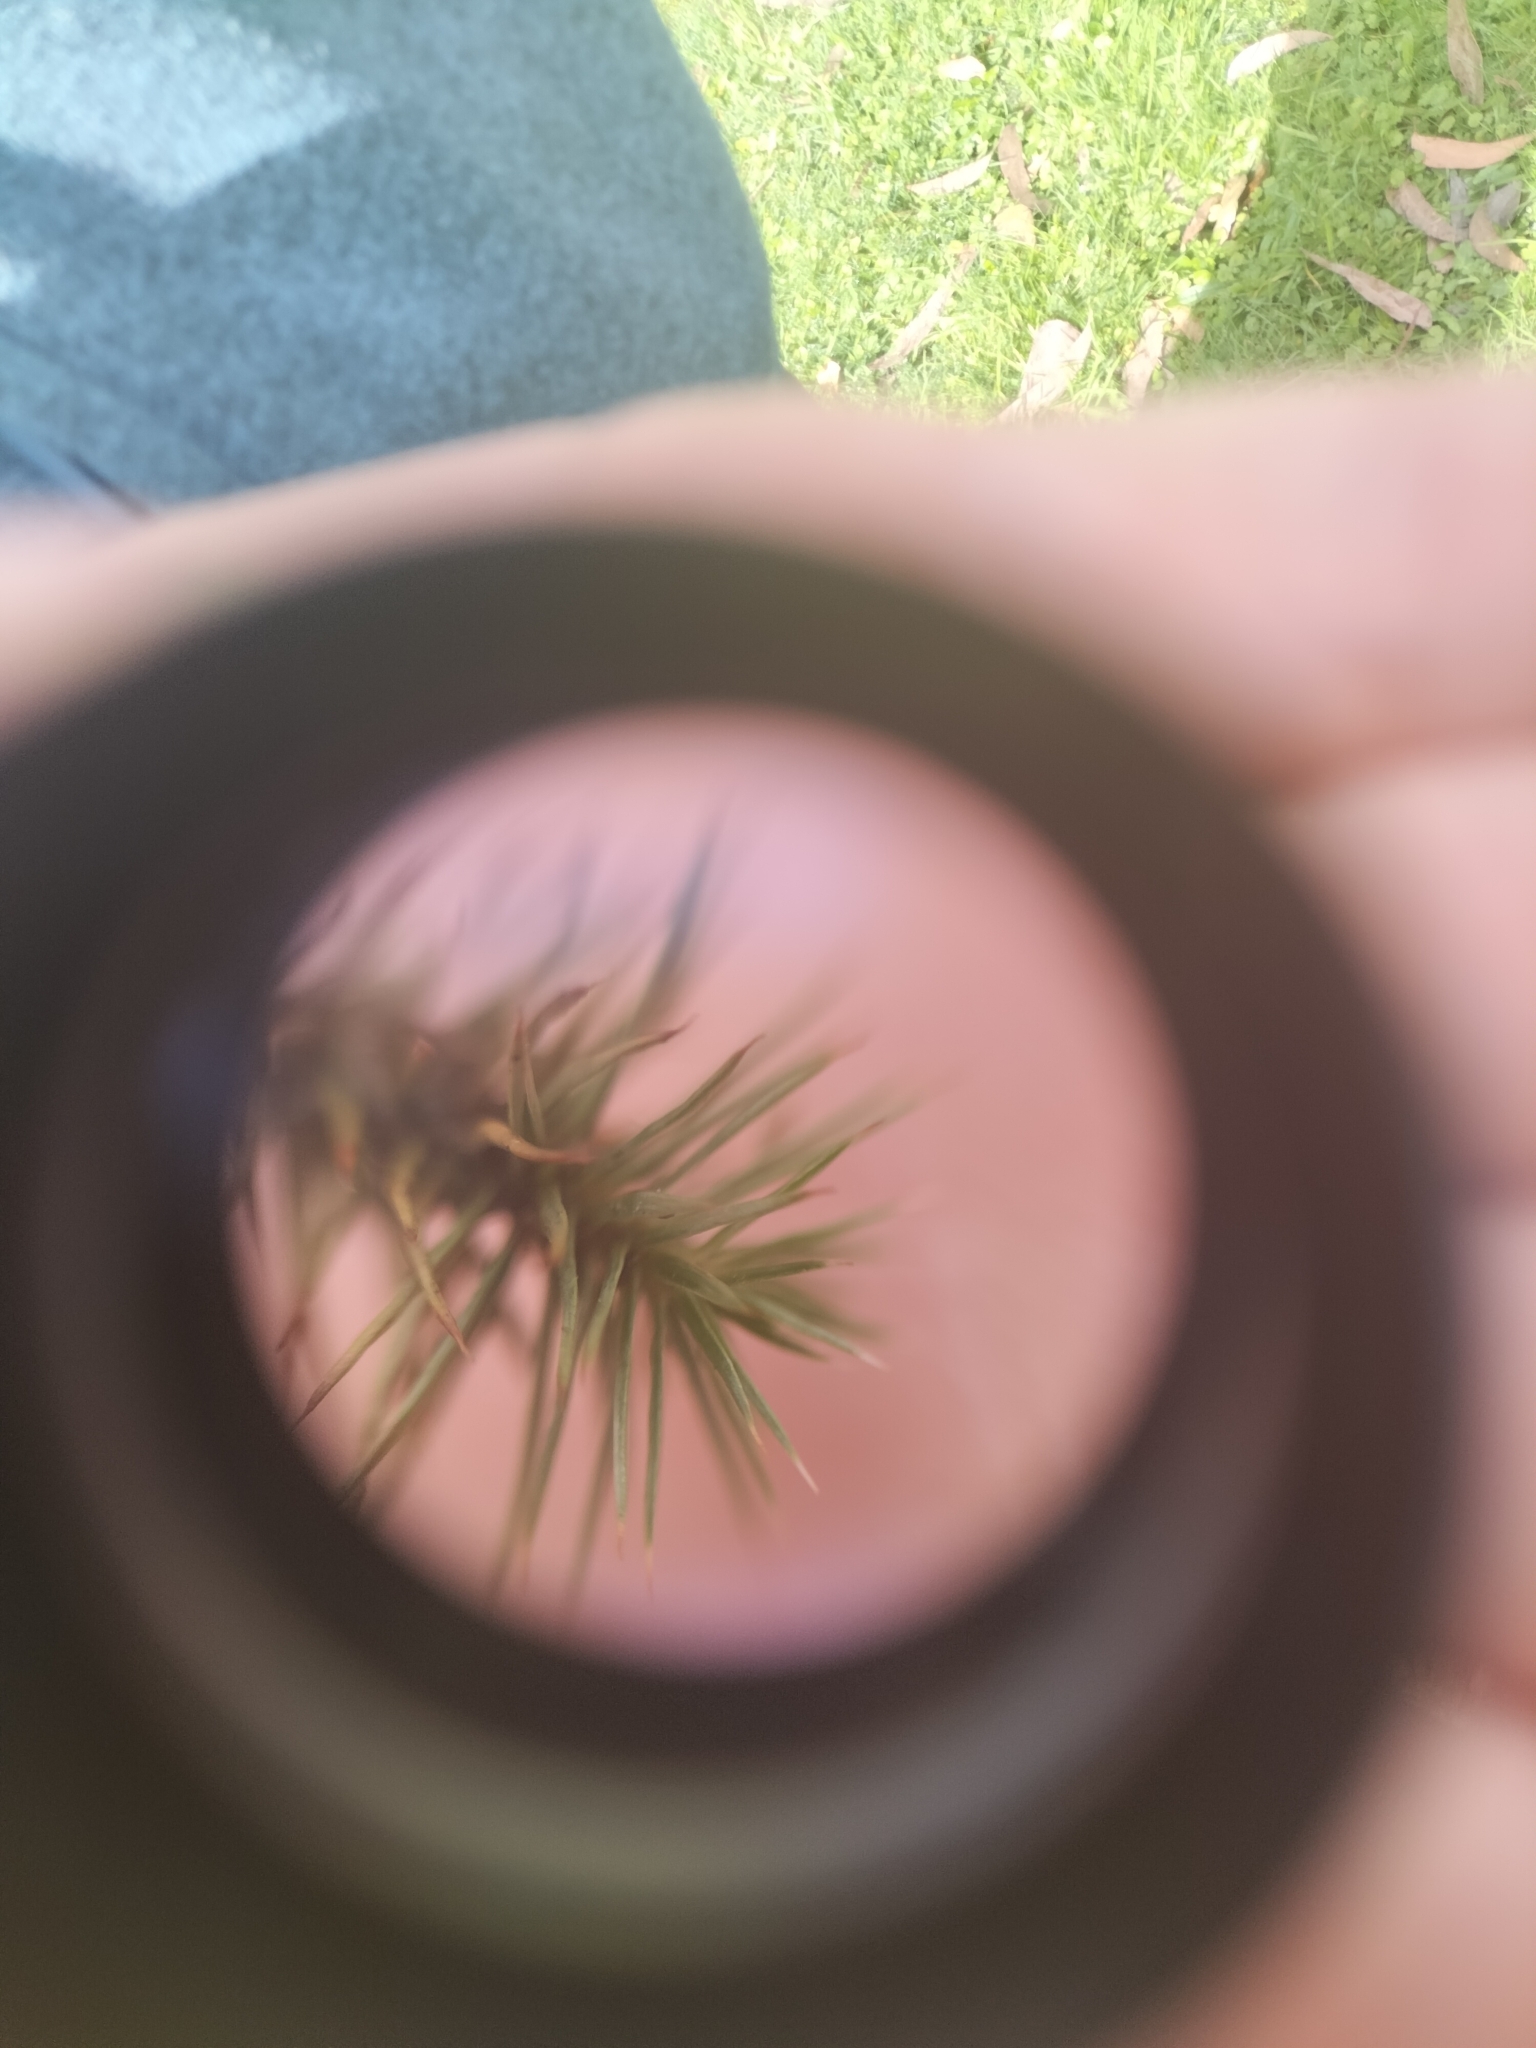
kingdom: Plantae
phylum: Bryophyta
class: Polytrichopsida
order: Polytrichales
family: Polytrichaceae
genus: Polytrichum
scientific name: Polytrichum juniperinum
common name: Juniper haircap moss
